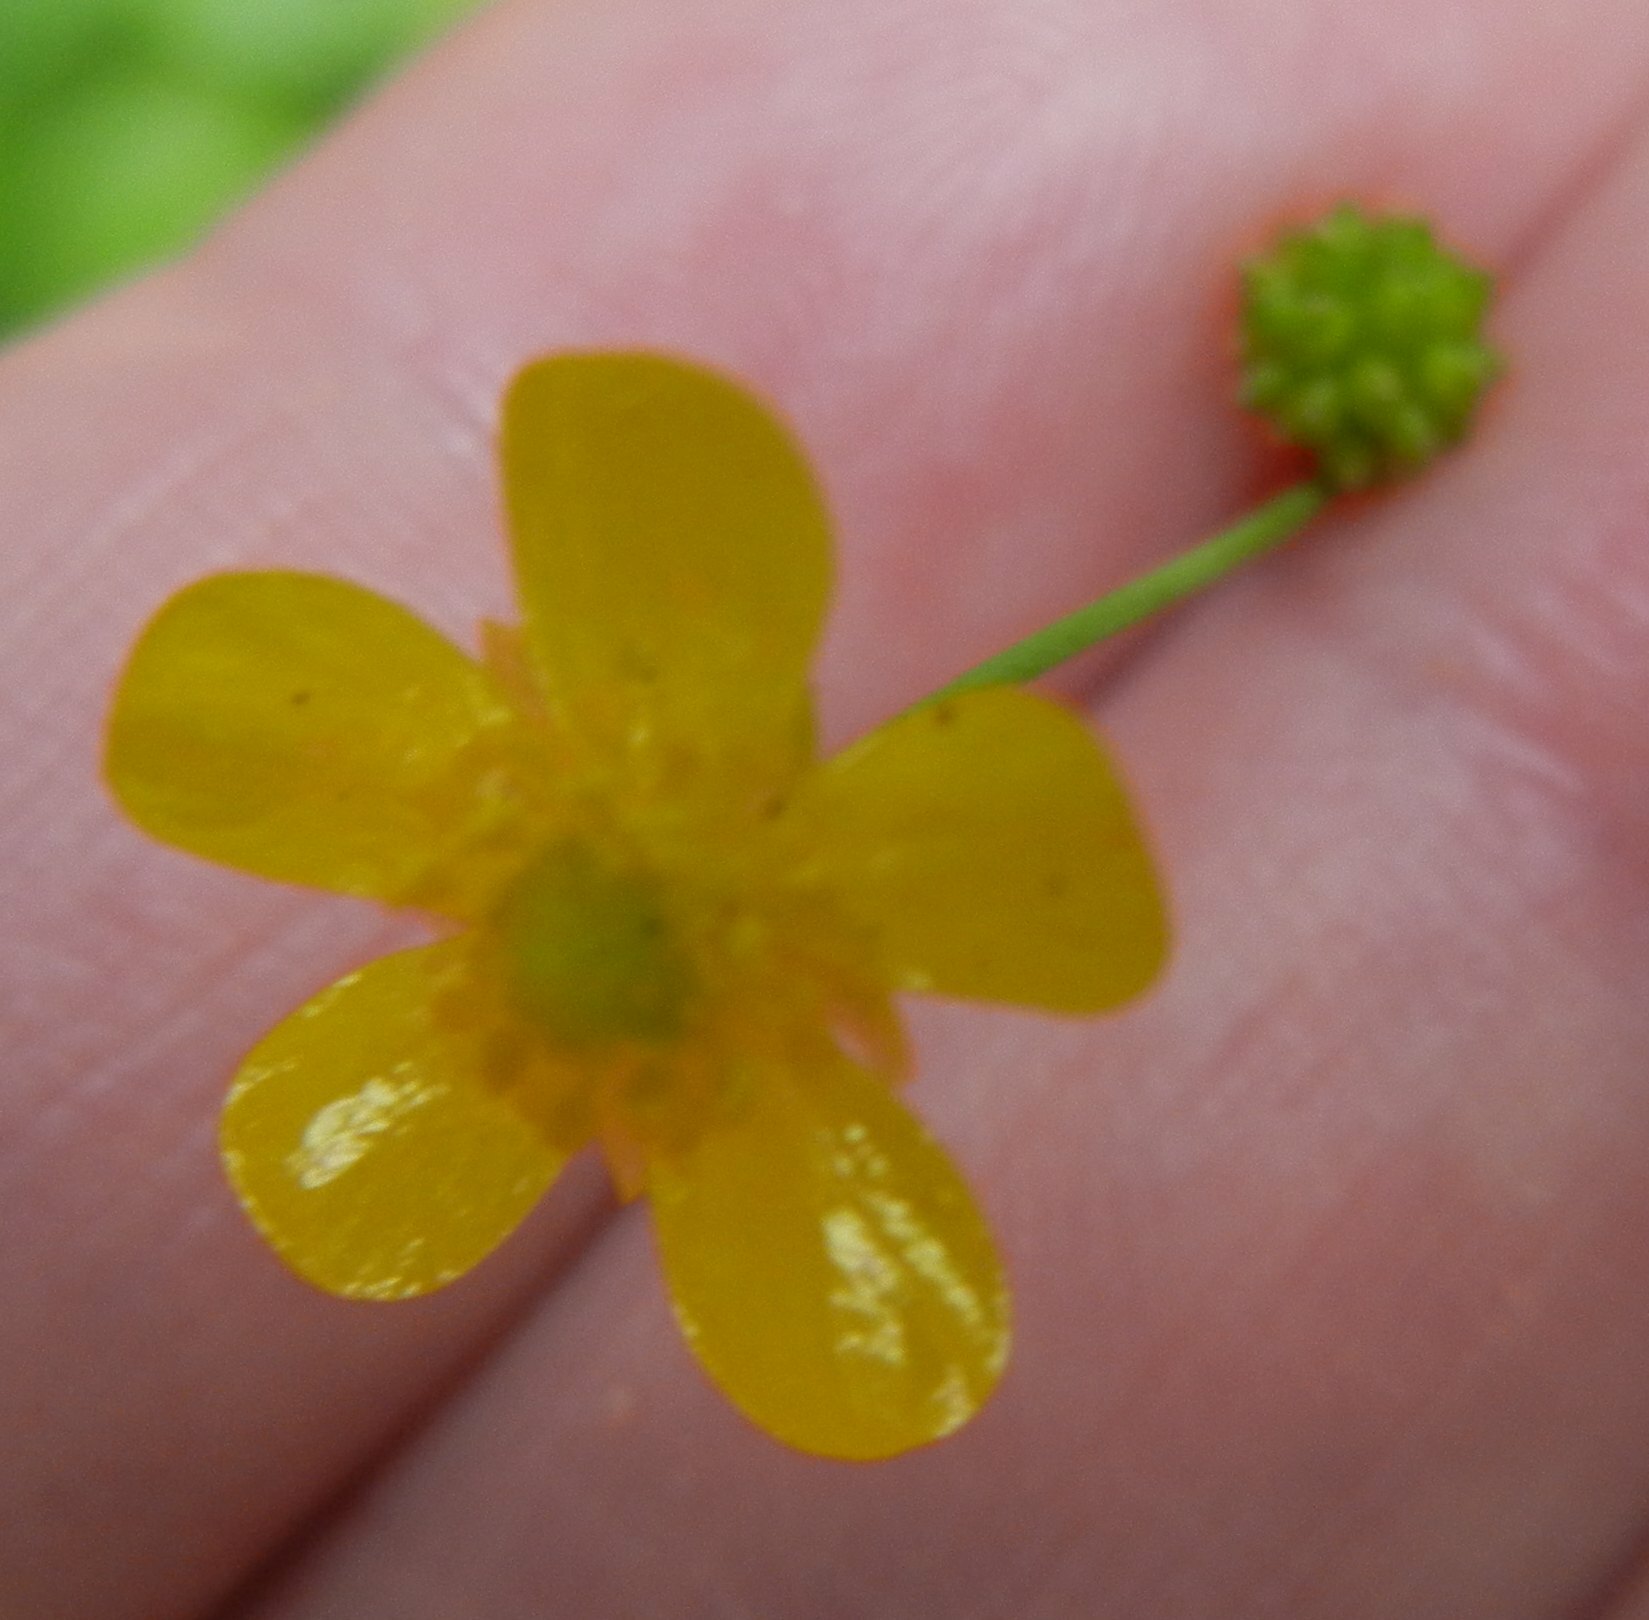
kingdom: Plantae
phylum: Tracheophyta
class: Magnoliopsida
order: Ranunculales
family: Ranunculaceae
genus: Ranunculus
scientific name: Ranunculus flammula
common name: Lesser spearwort
